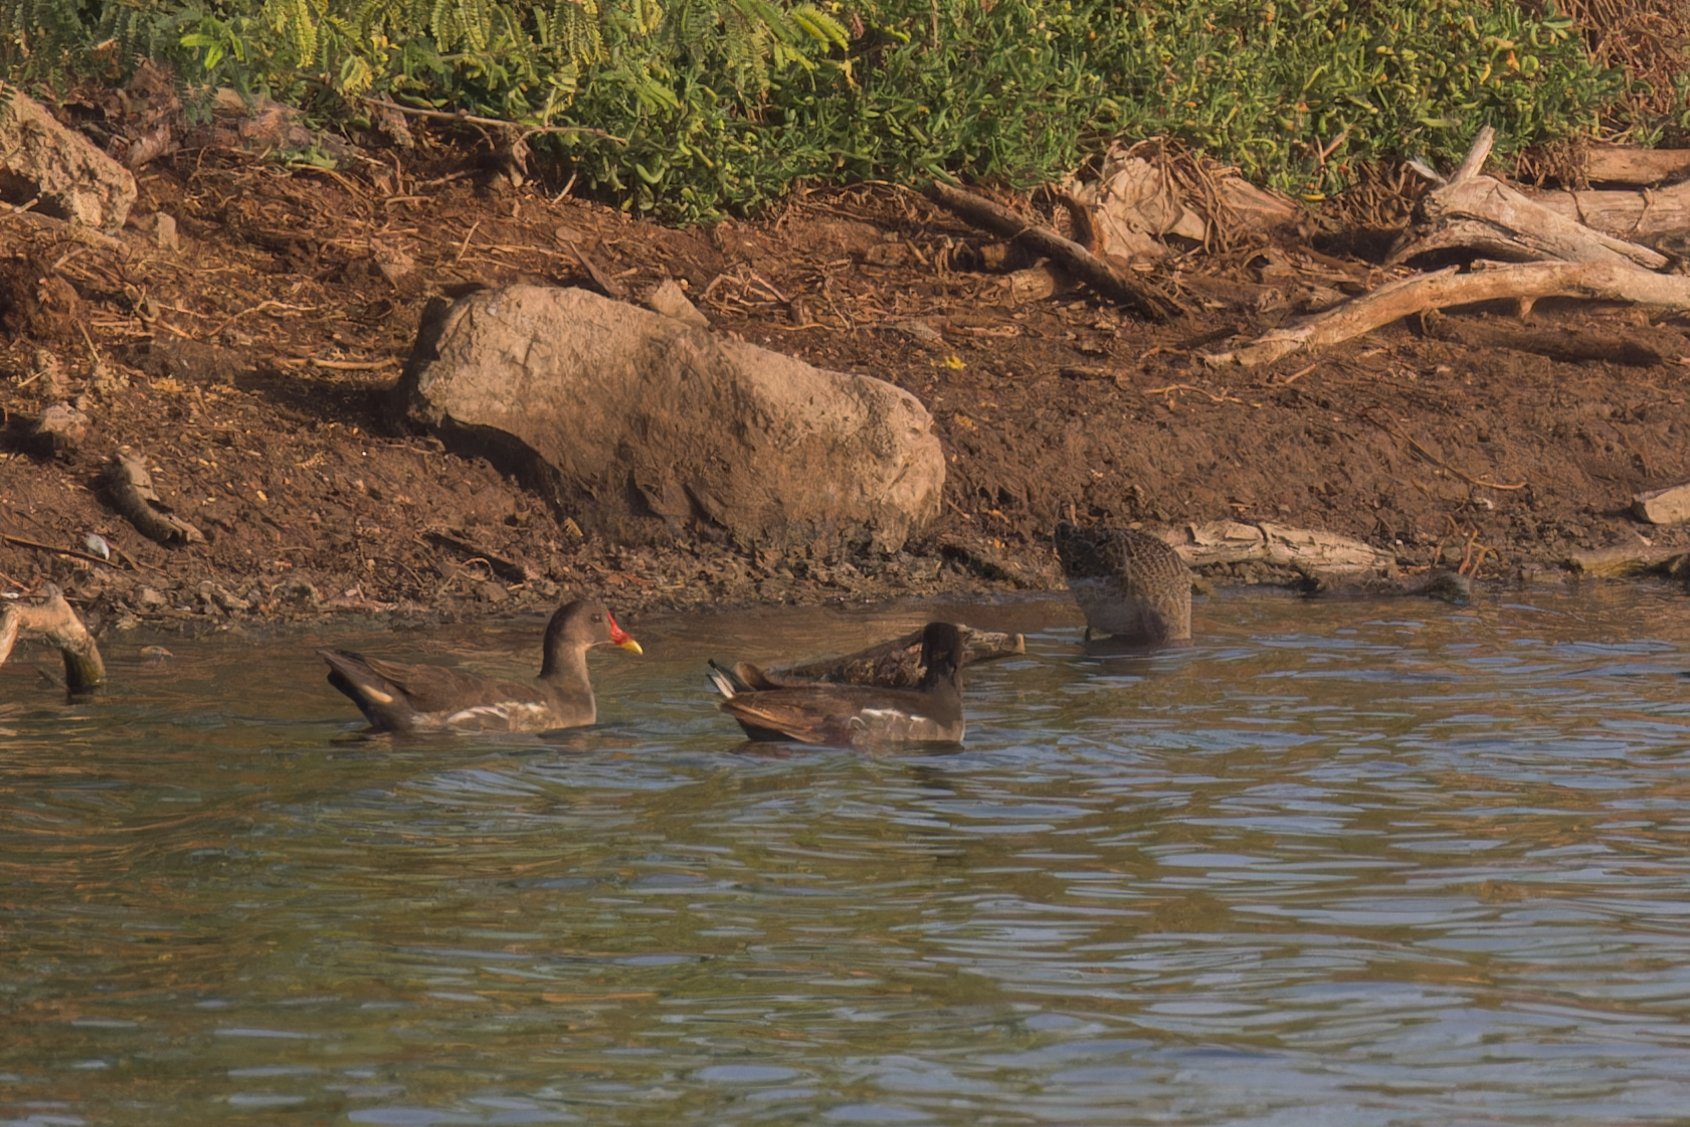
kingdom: Animalia
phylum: Chordata
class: Aves
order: Gruiformes
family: Rallidae
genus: Gallinula
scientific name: Gallinula chloropus
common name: Common moorhen
